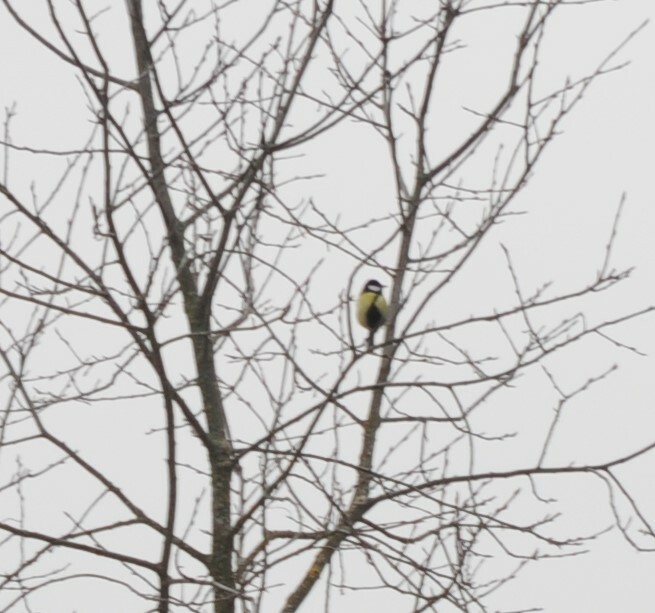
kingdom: Animalia
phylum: Chordata
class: Aves
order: Passeriformes
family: Paridae
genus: Parus
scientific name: Parus major
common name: Great tit
